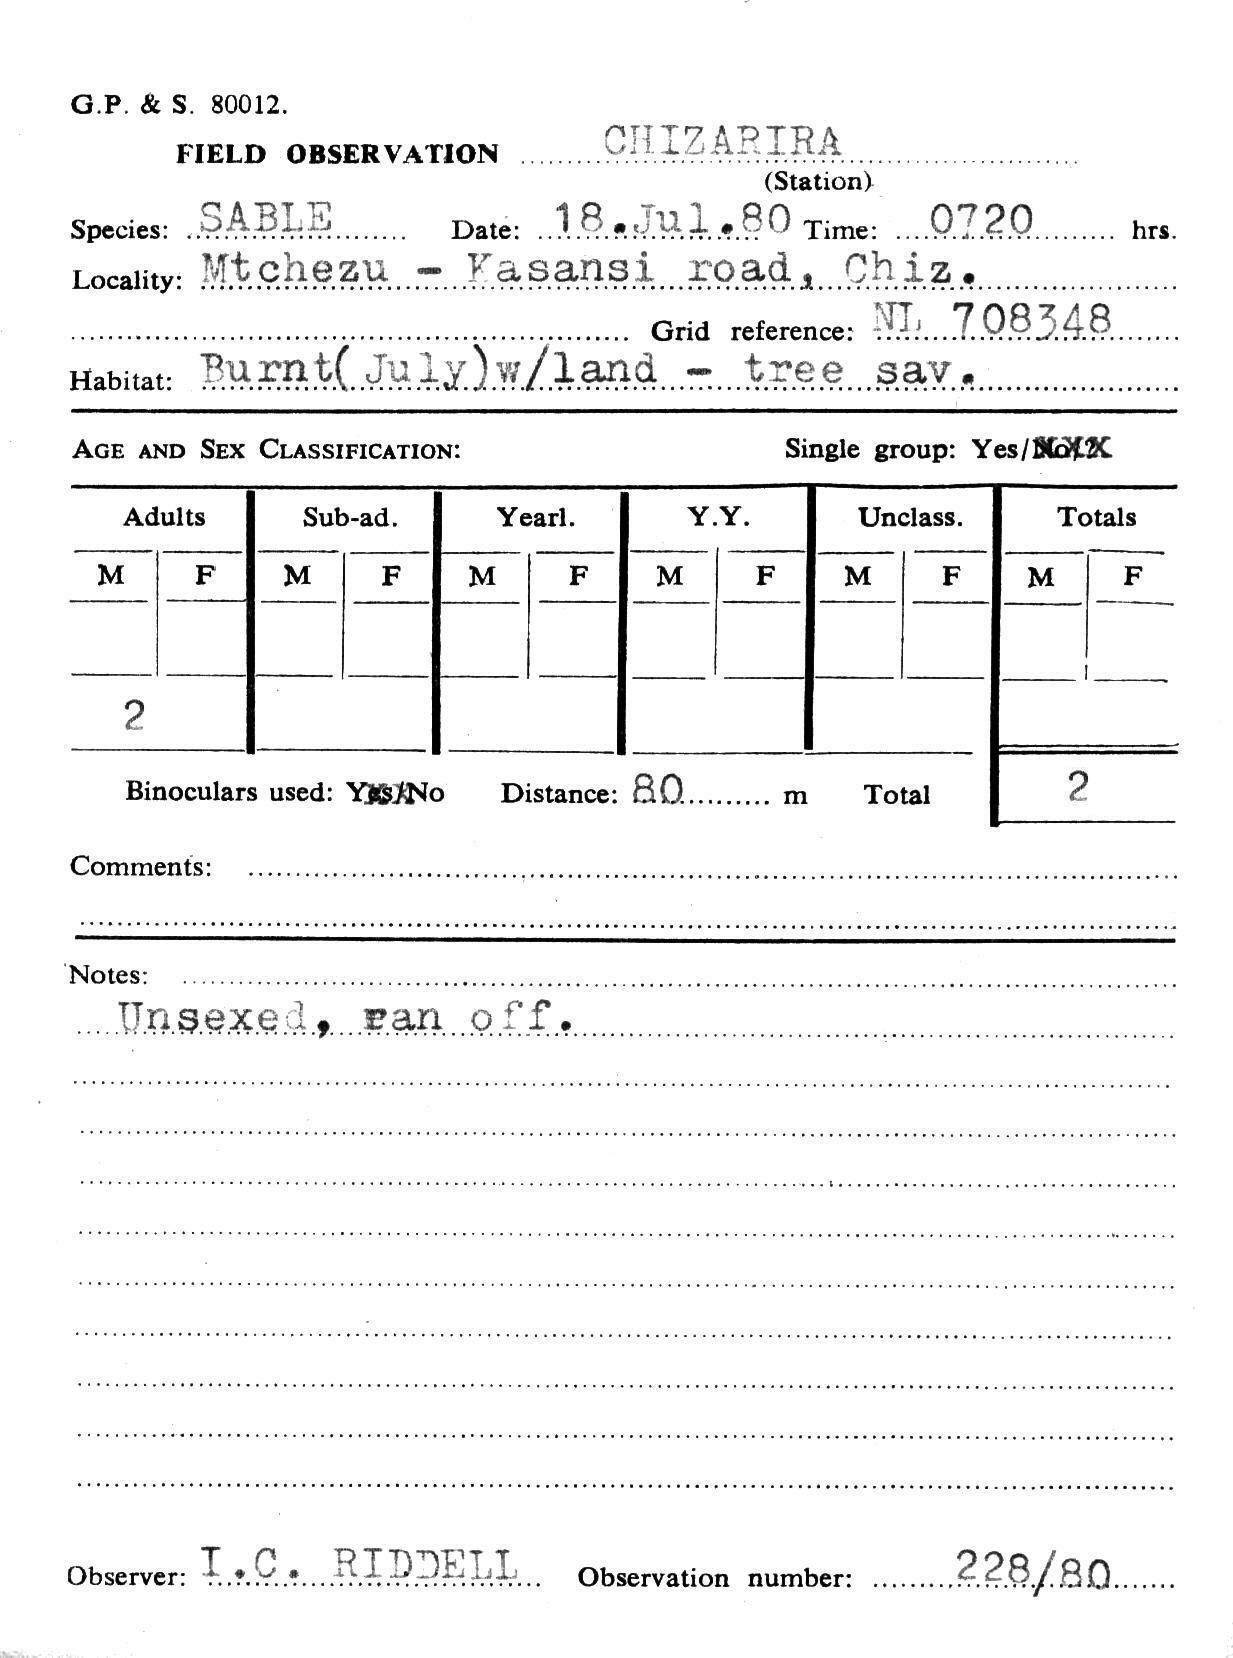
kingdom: Animalia
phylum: Chordata
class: Mammalia
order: Artiodactyla
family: Bovidae
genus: Hippotragus
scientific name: Hippotragus niger
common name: Sable antelope
